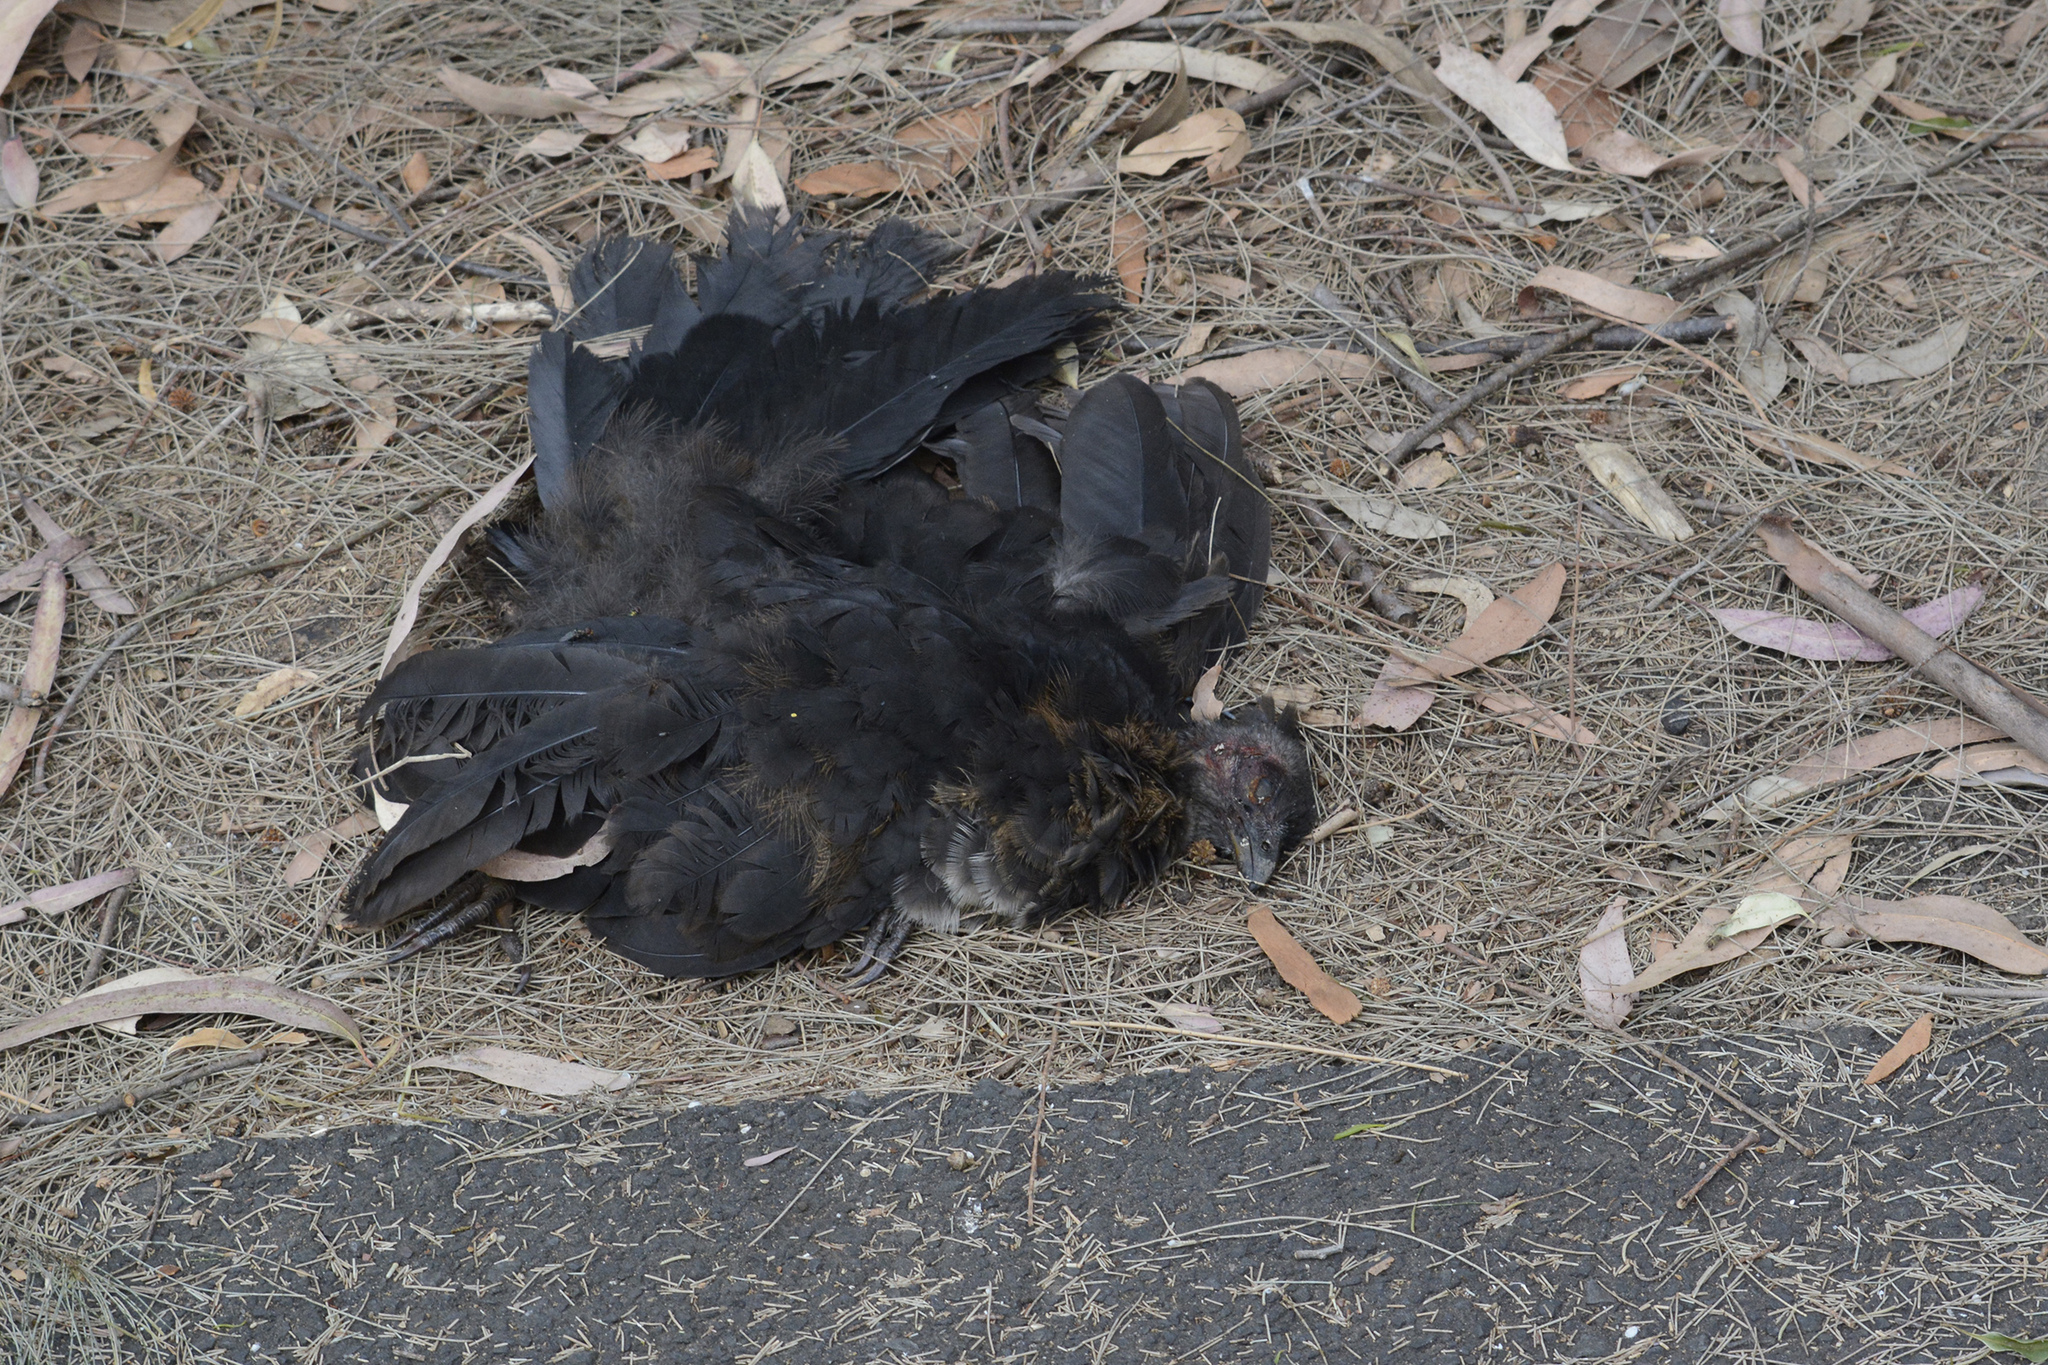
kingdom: Animalia
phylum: Chordata
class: Aves
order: Galliformes
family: Megapodiidae
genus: Alectura
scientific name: Alectura lathami
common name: Australian brushturkey
